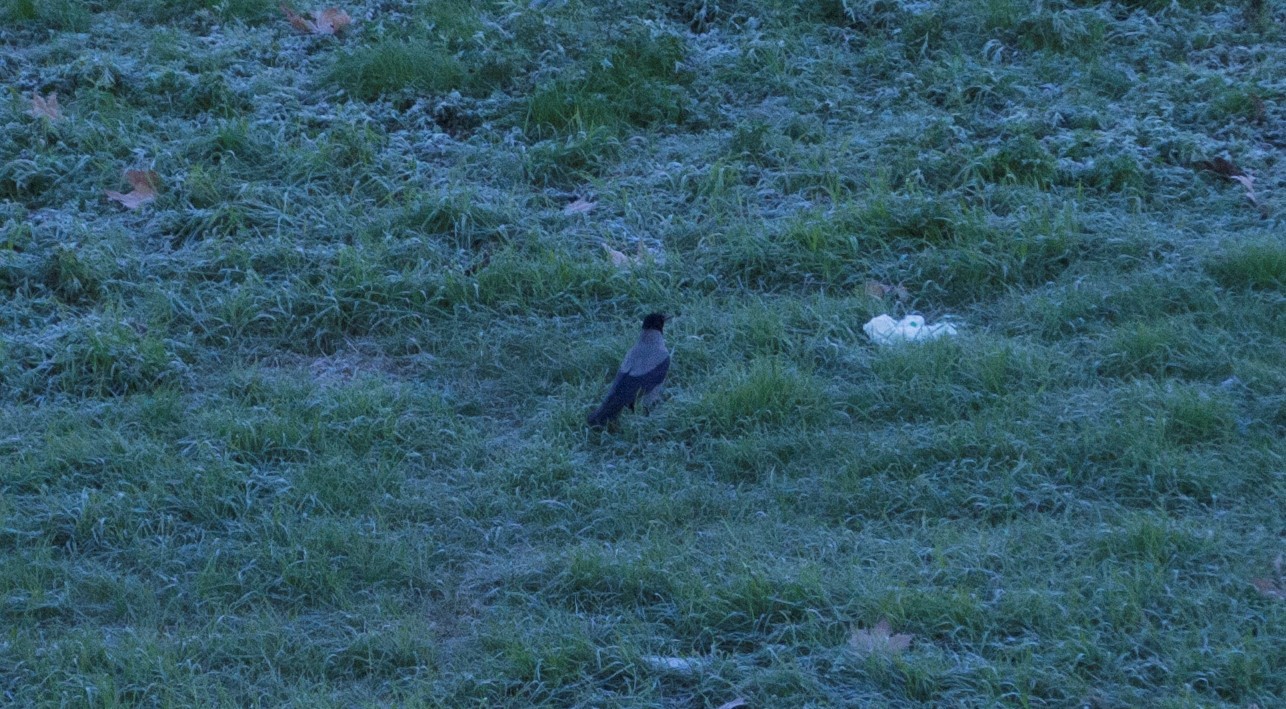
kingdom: Animalia
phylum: Chordata
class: Aves
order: Passeriformes
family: Corvidae
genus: Corvus
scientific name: Corvus cornix
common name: Hooded crow
